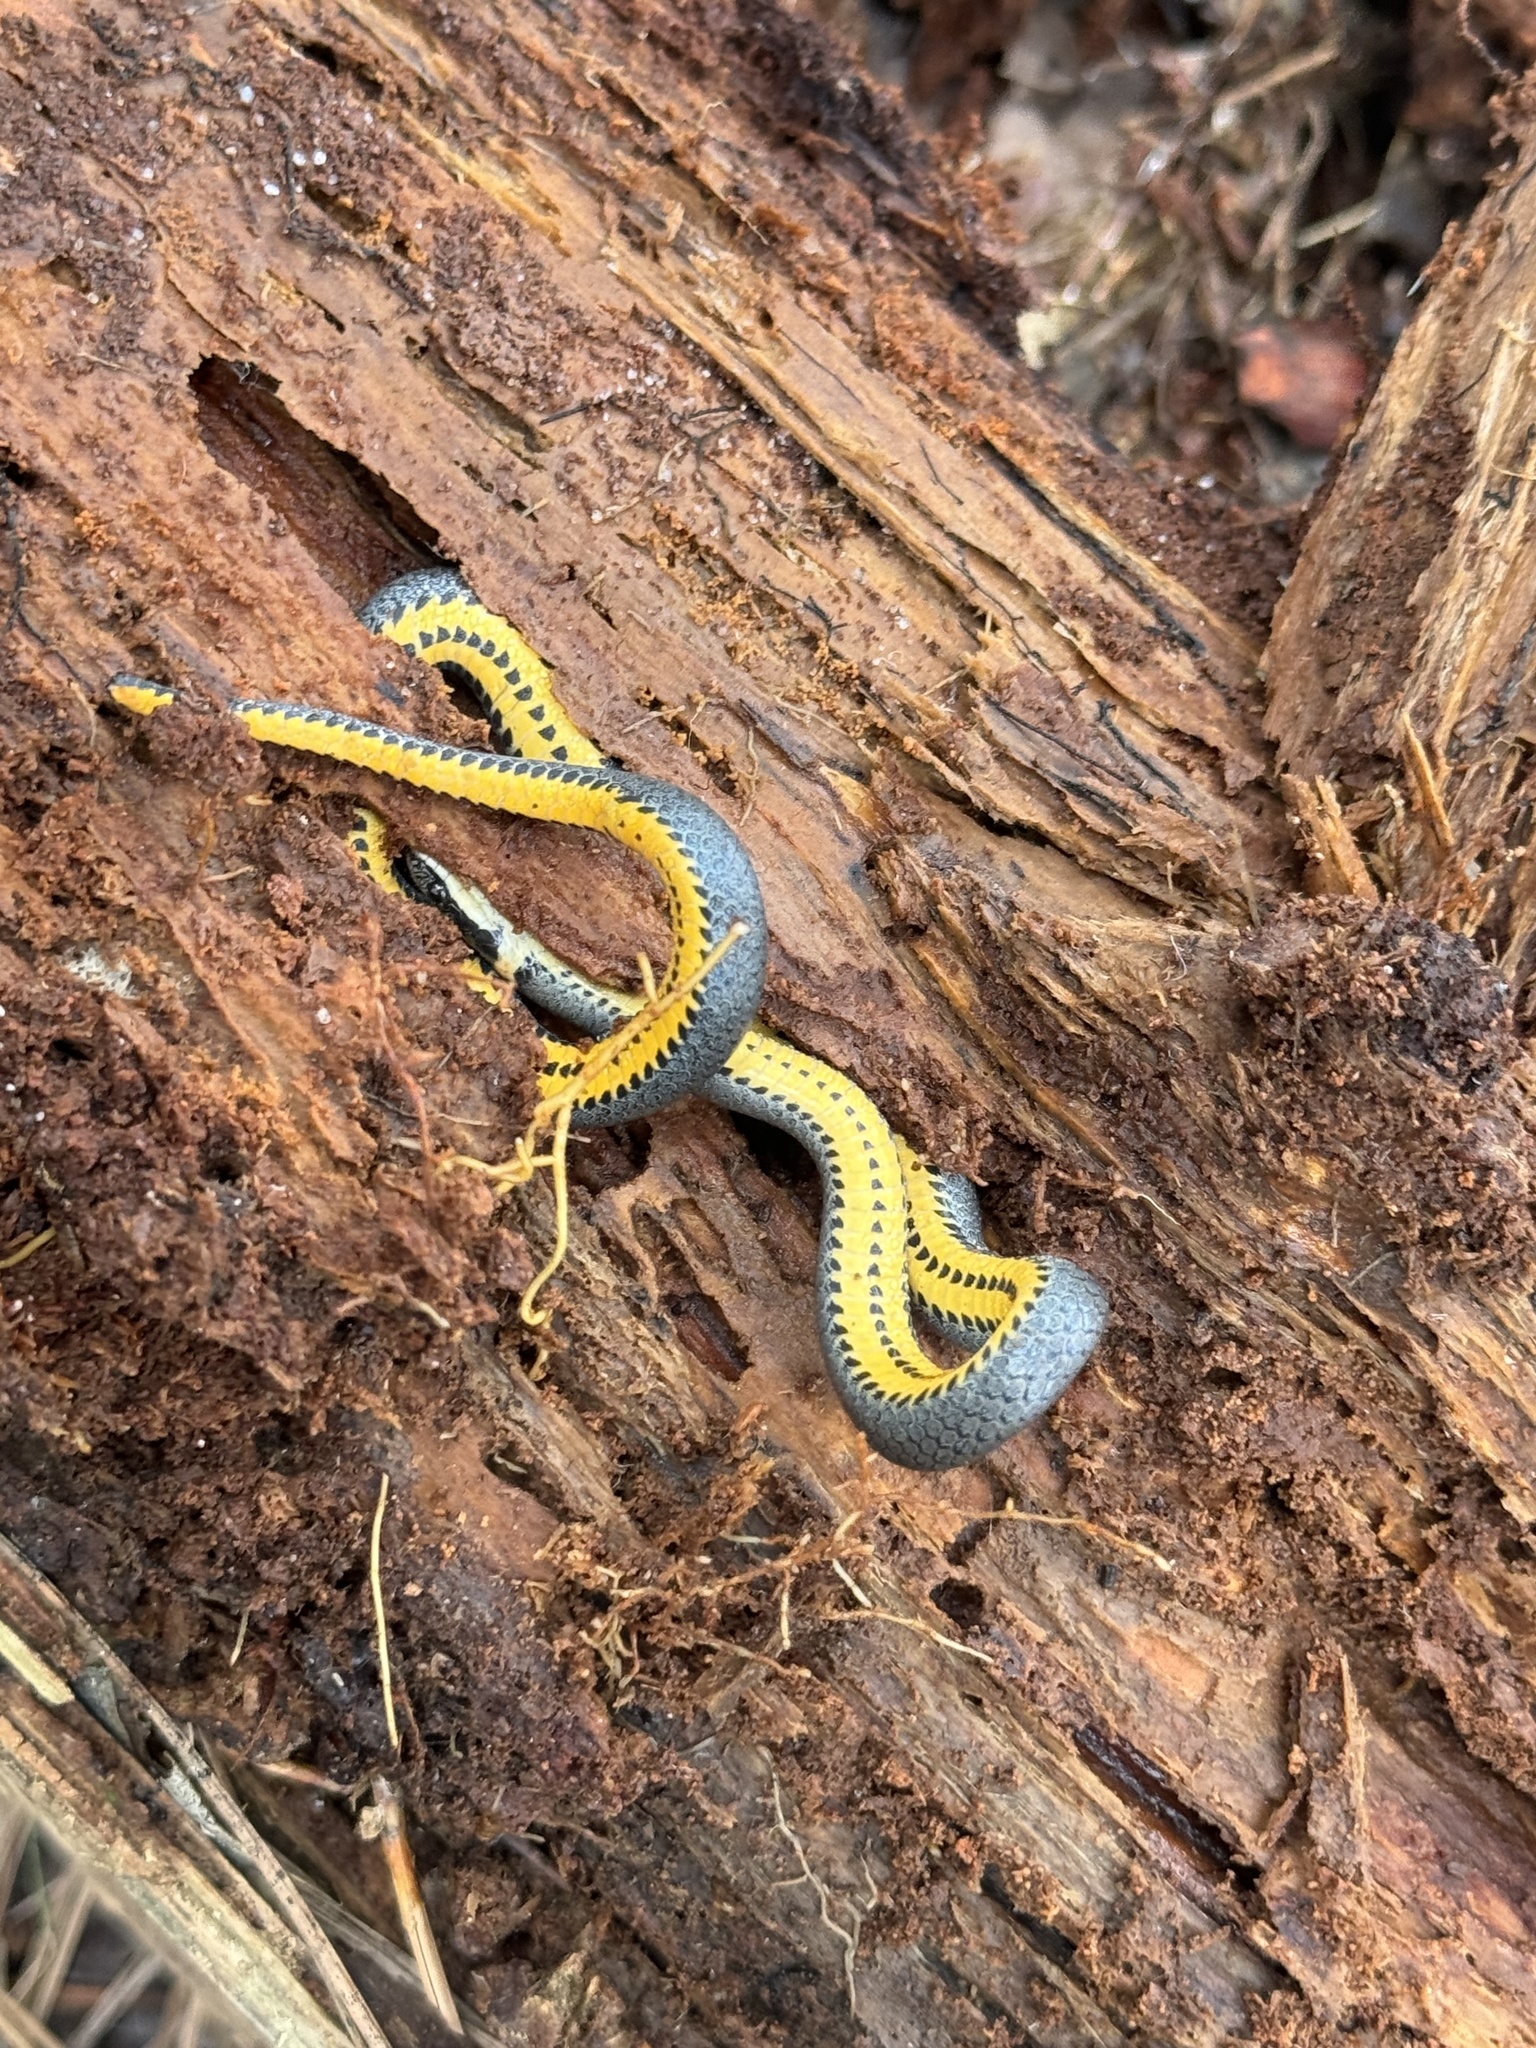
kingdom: Animalia
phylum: Chordata
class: Squamata
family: Colubridae
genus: Diadophis
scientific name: Diadophis punctatus
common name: Ringneck snake
